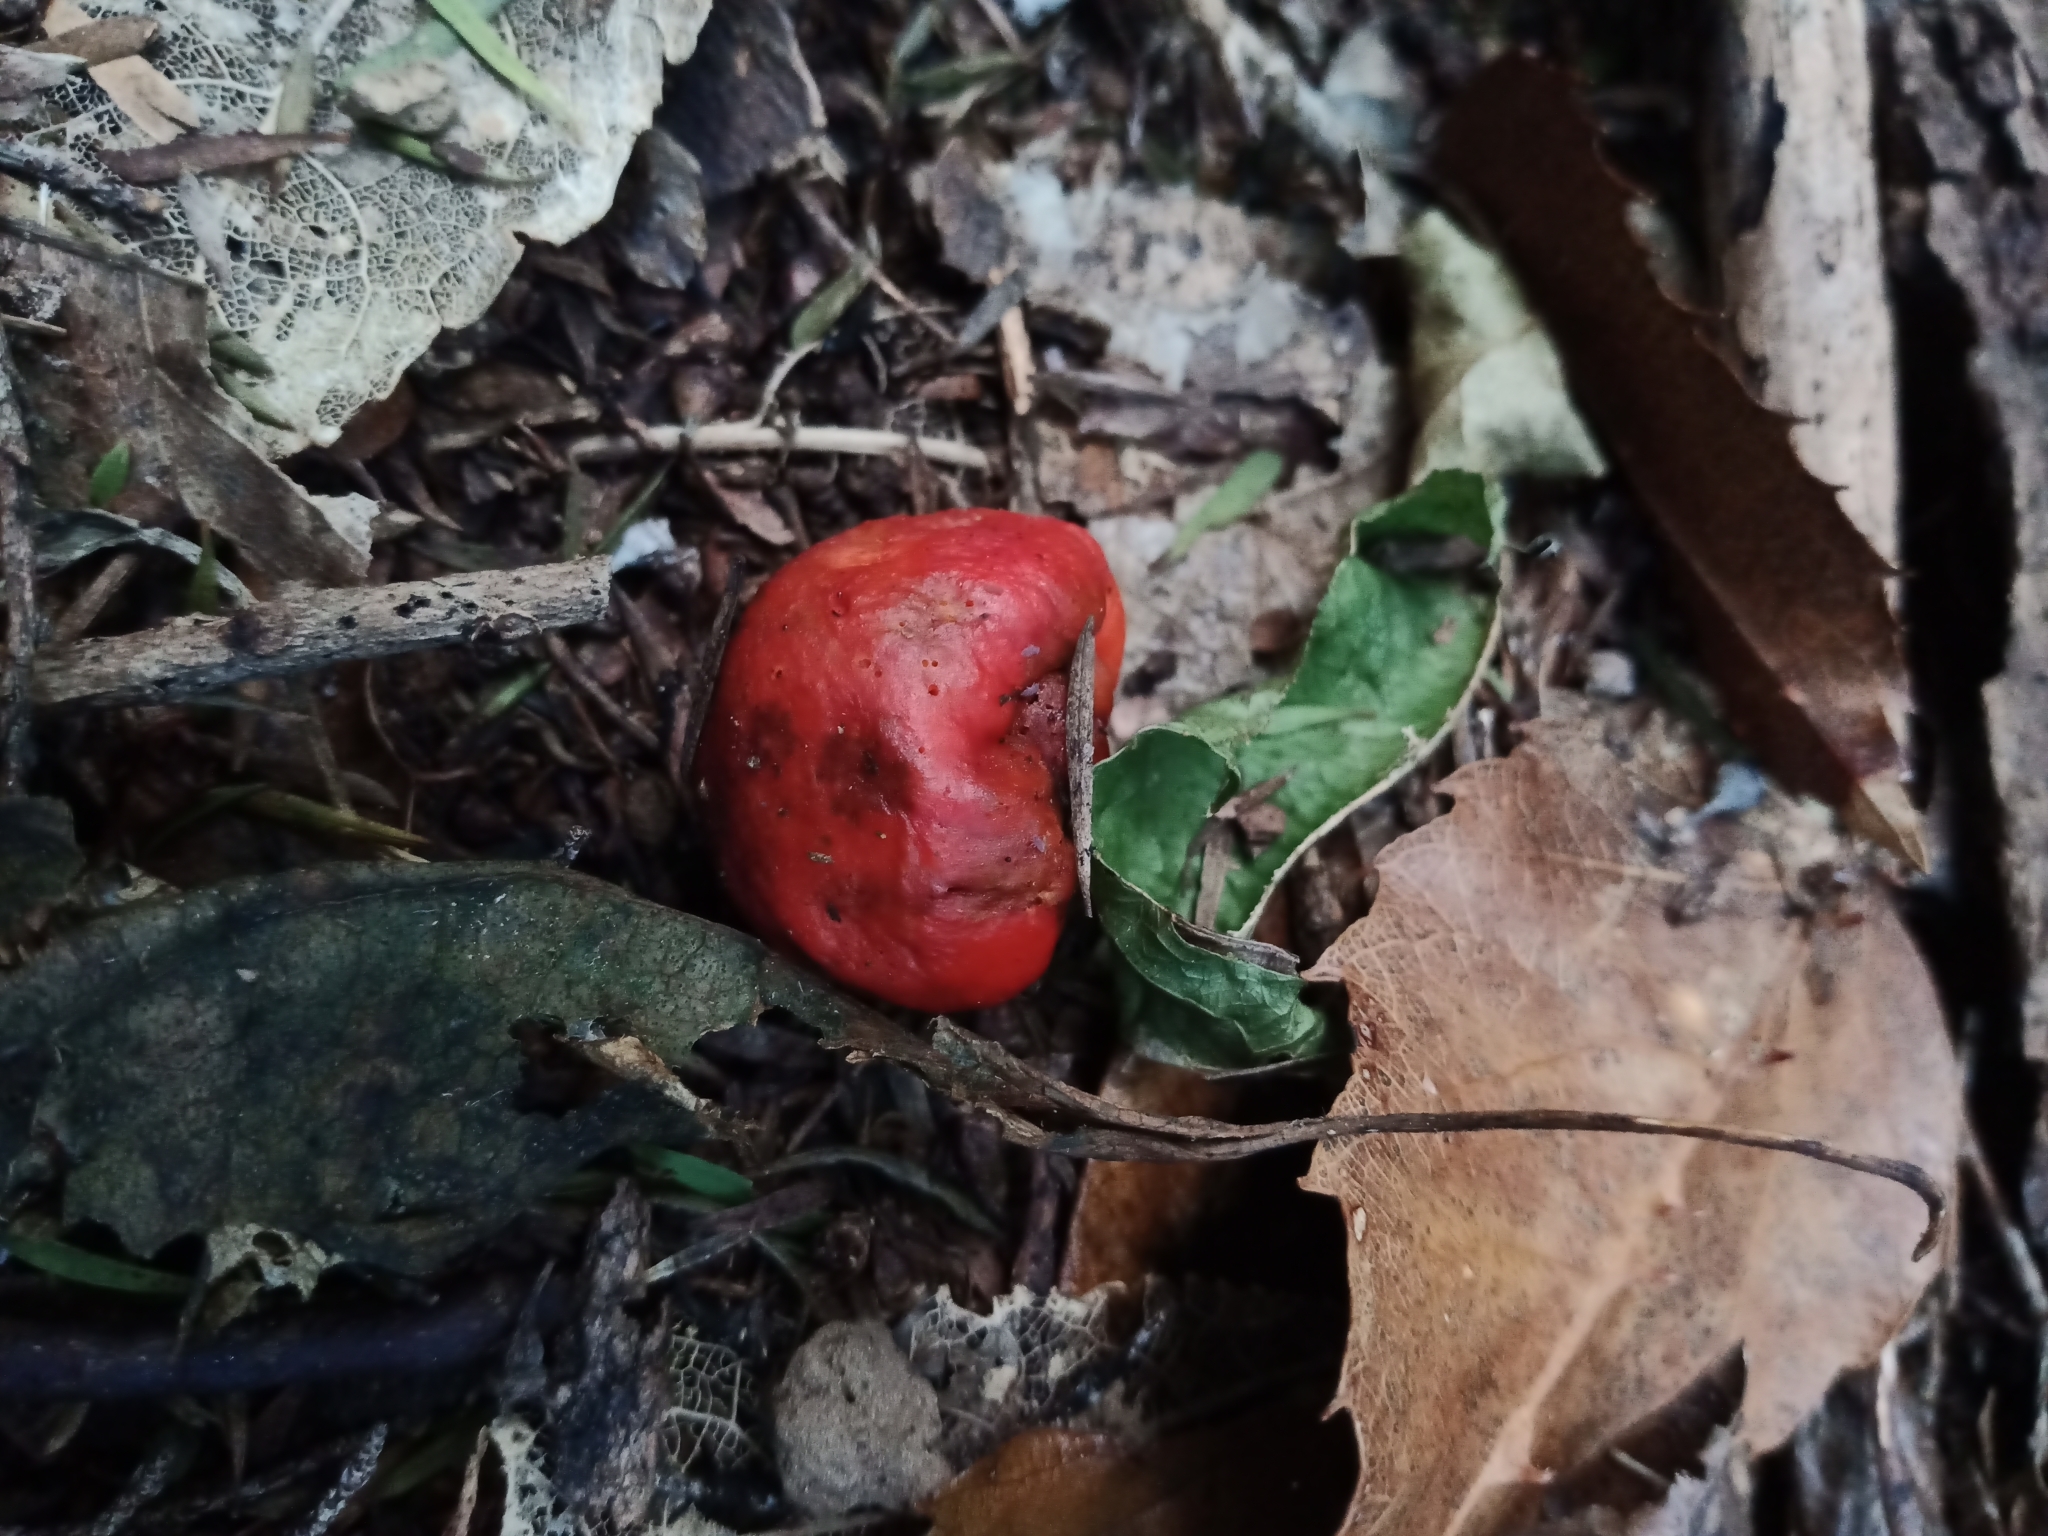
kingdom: Fungi
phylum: Basidiomycota
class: Agaricomycetes
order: Agaricales
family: Strophariaceae
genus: Leratiomyces
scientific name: Leratiomyces erythrocephalus
